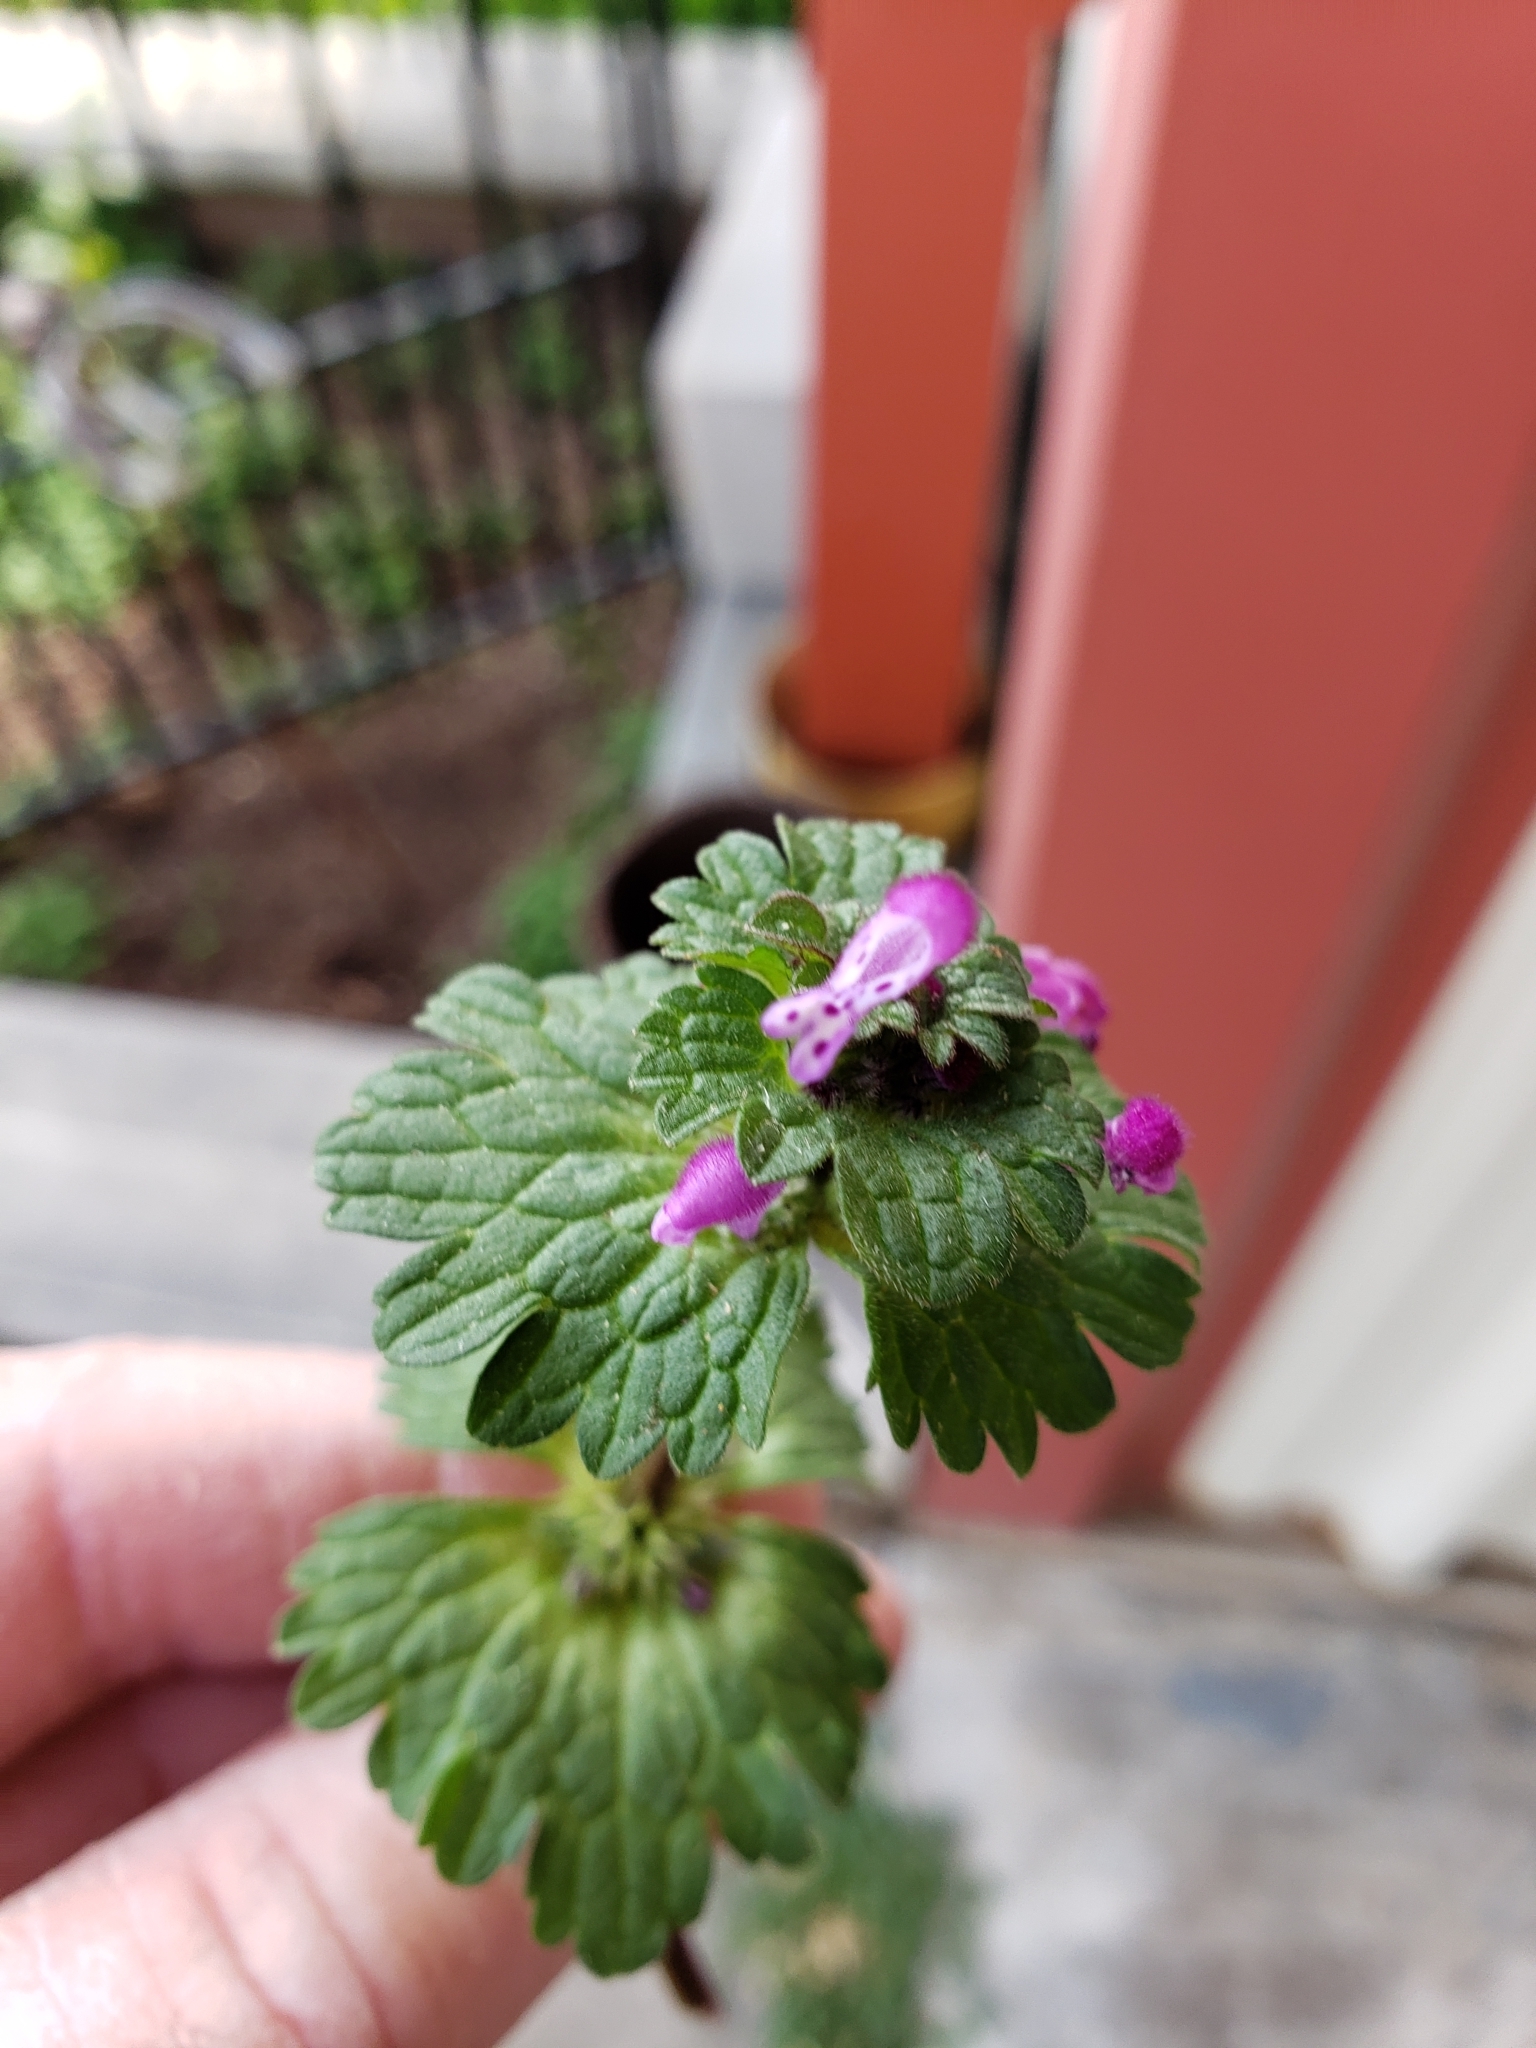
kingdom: Plantae
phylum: Tracheophyta
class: Magnoliopsida
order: Lamiales
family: Lamiaceae
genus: Lamium
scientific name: Lamium amplexicaule
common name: Henbit dead-nettle
